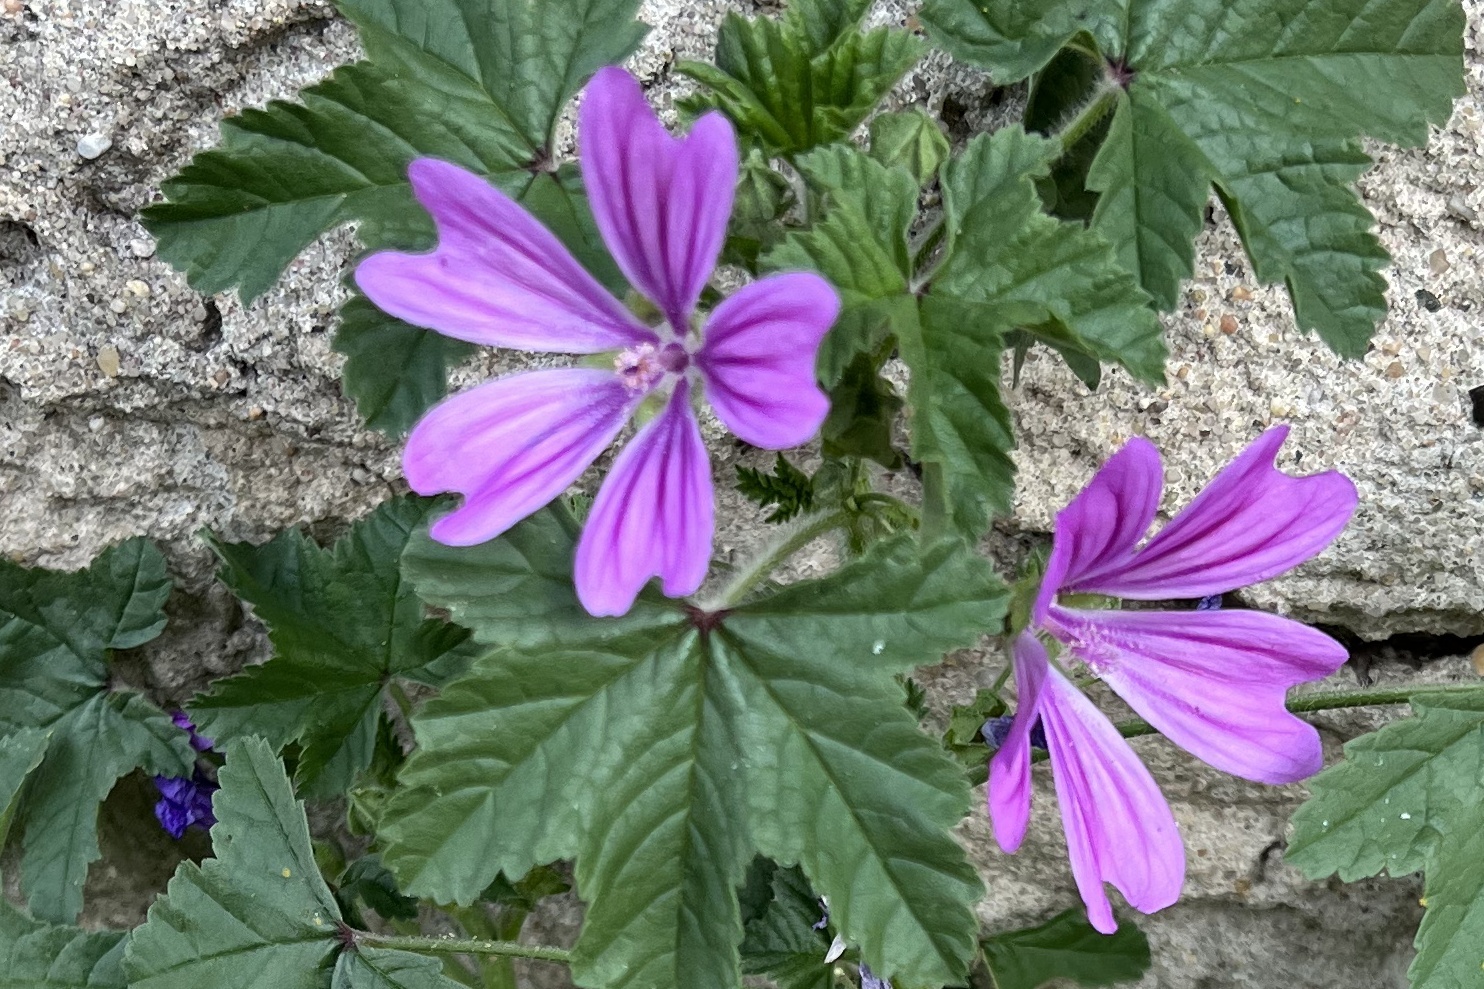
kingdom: Plantae
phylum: Tracheophyta
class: Magnoliopsida
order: Malvales
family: Malvaceae
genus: Malva
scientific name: Malva sylvestris
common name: Common mallow
